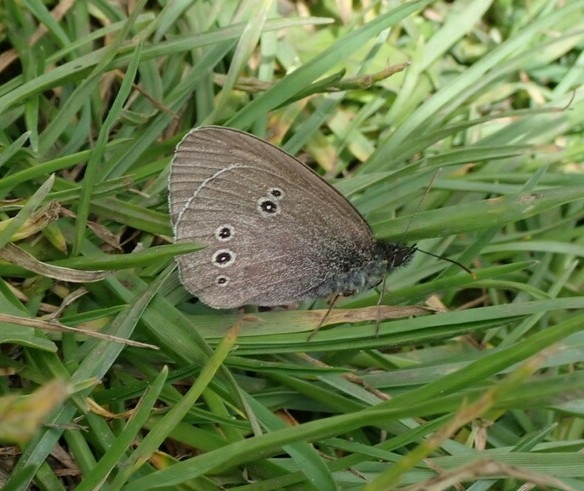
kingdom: Animalia
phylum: Arthropoda
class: Insecta
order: Lepidoptera
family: Nymphalidae
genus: Aphantopus
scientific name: Aphantopus hyperantus
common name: Ringlet
